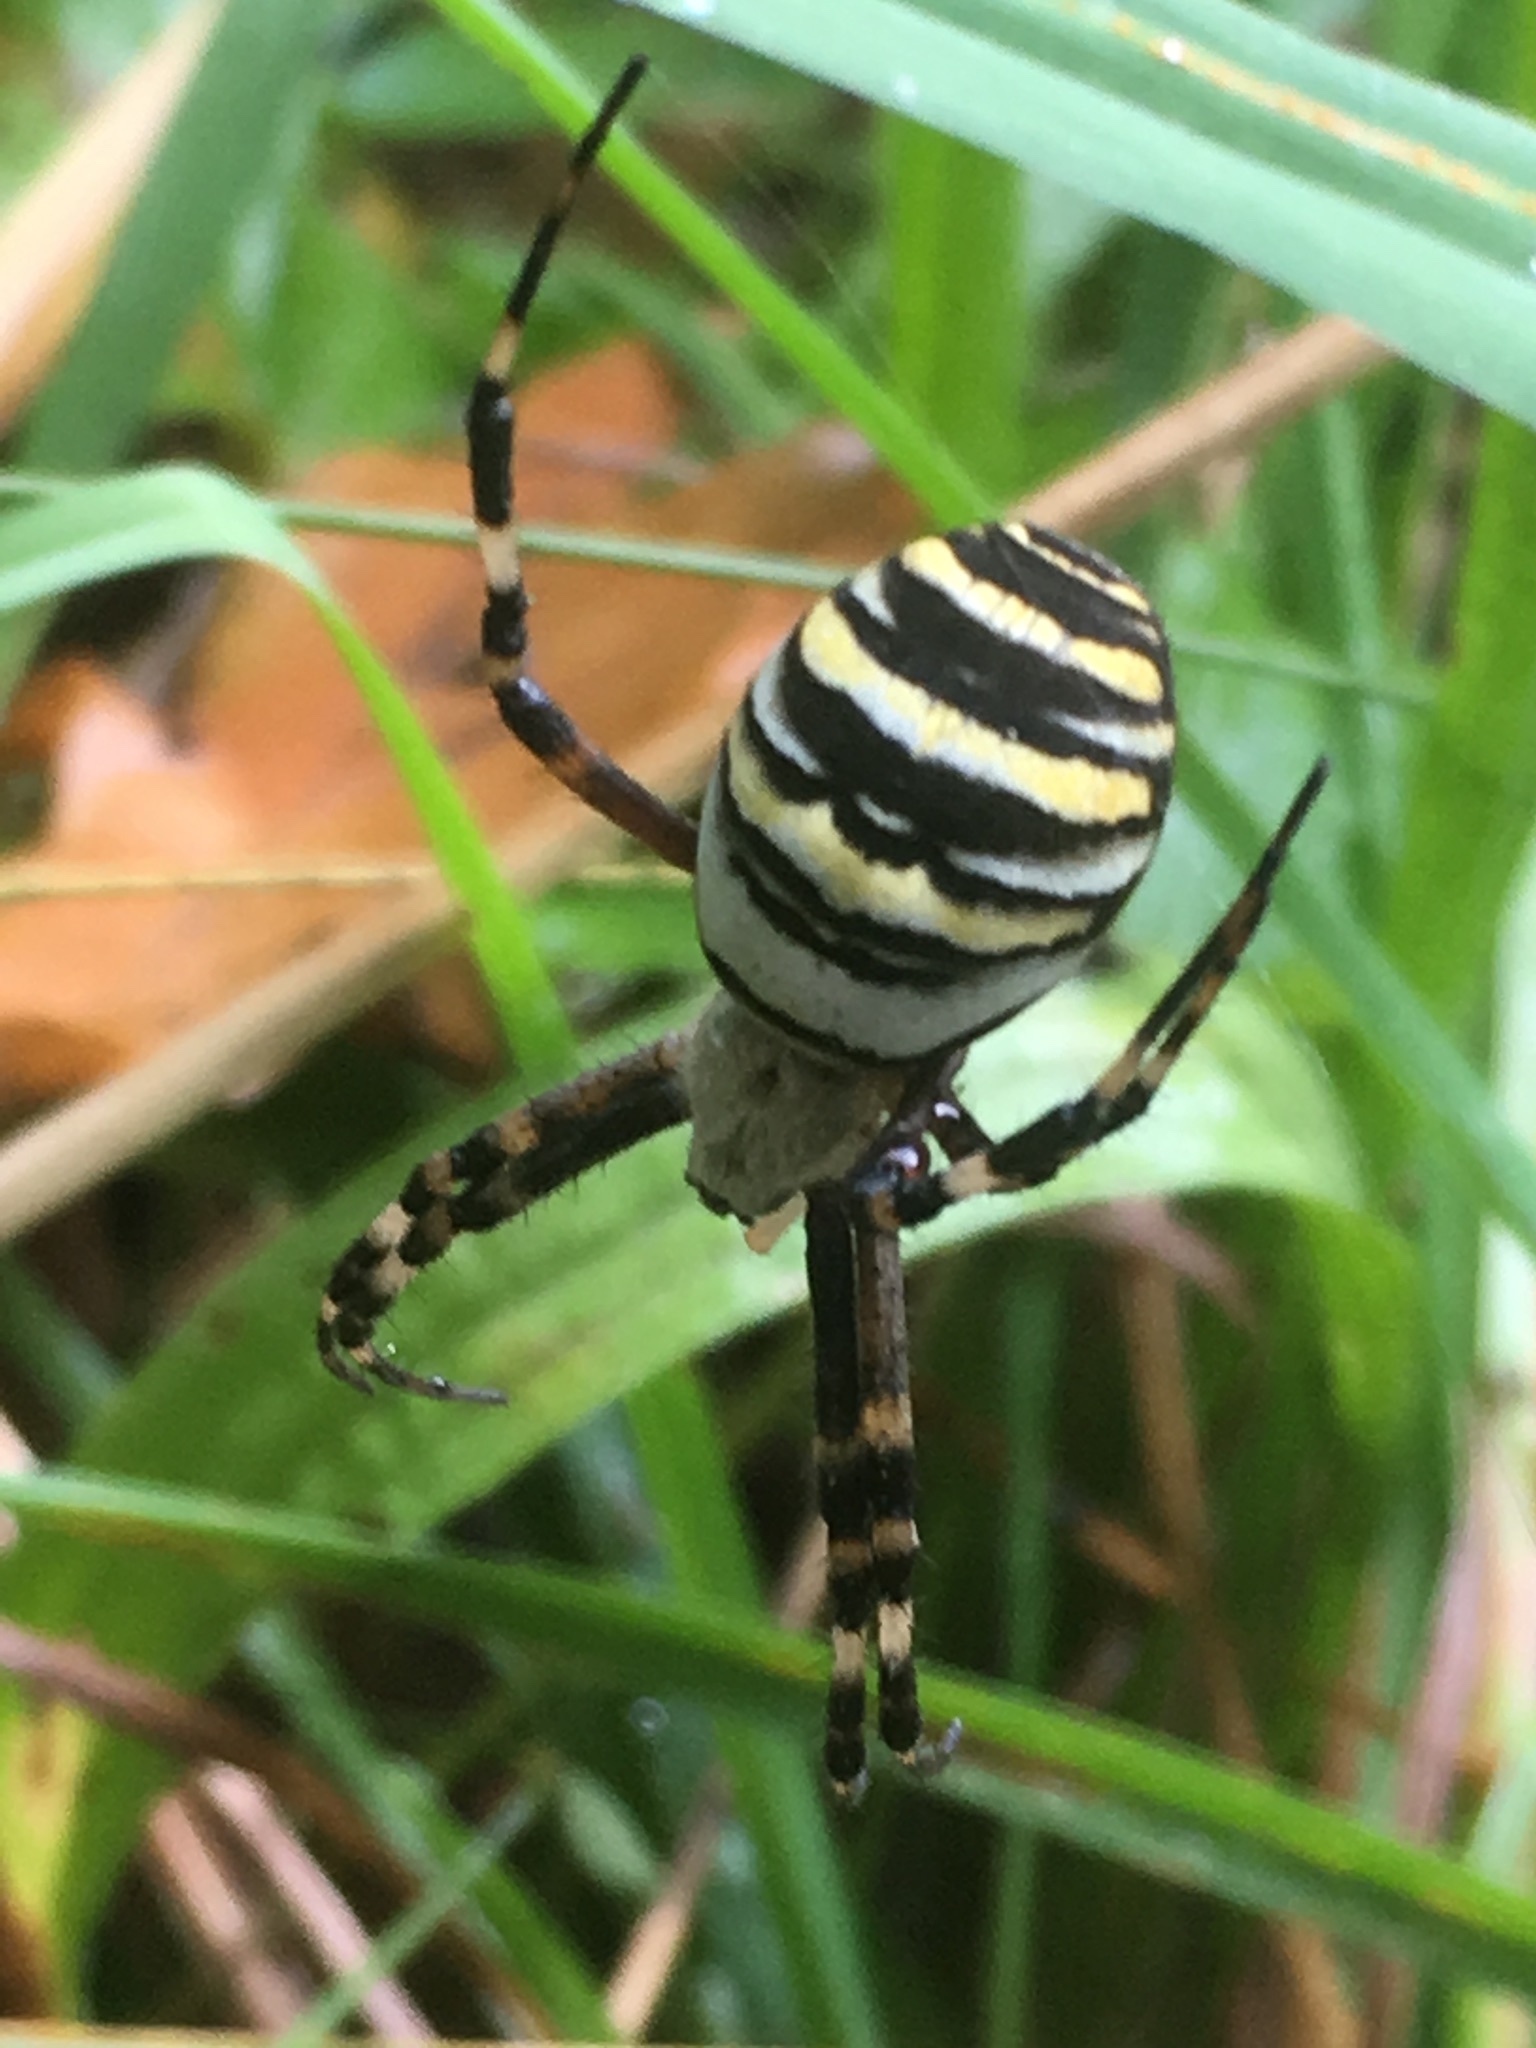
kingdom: Animalia
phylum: Arthropoda
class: Arachnida
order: Araneae
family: Araneidae
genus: Argiope
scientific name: Argiope bruennichi
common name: Wasp spider
